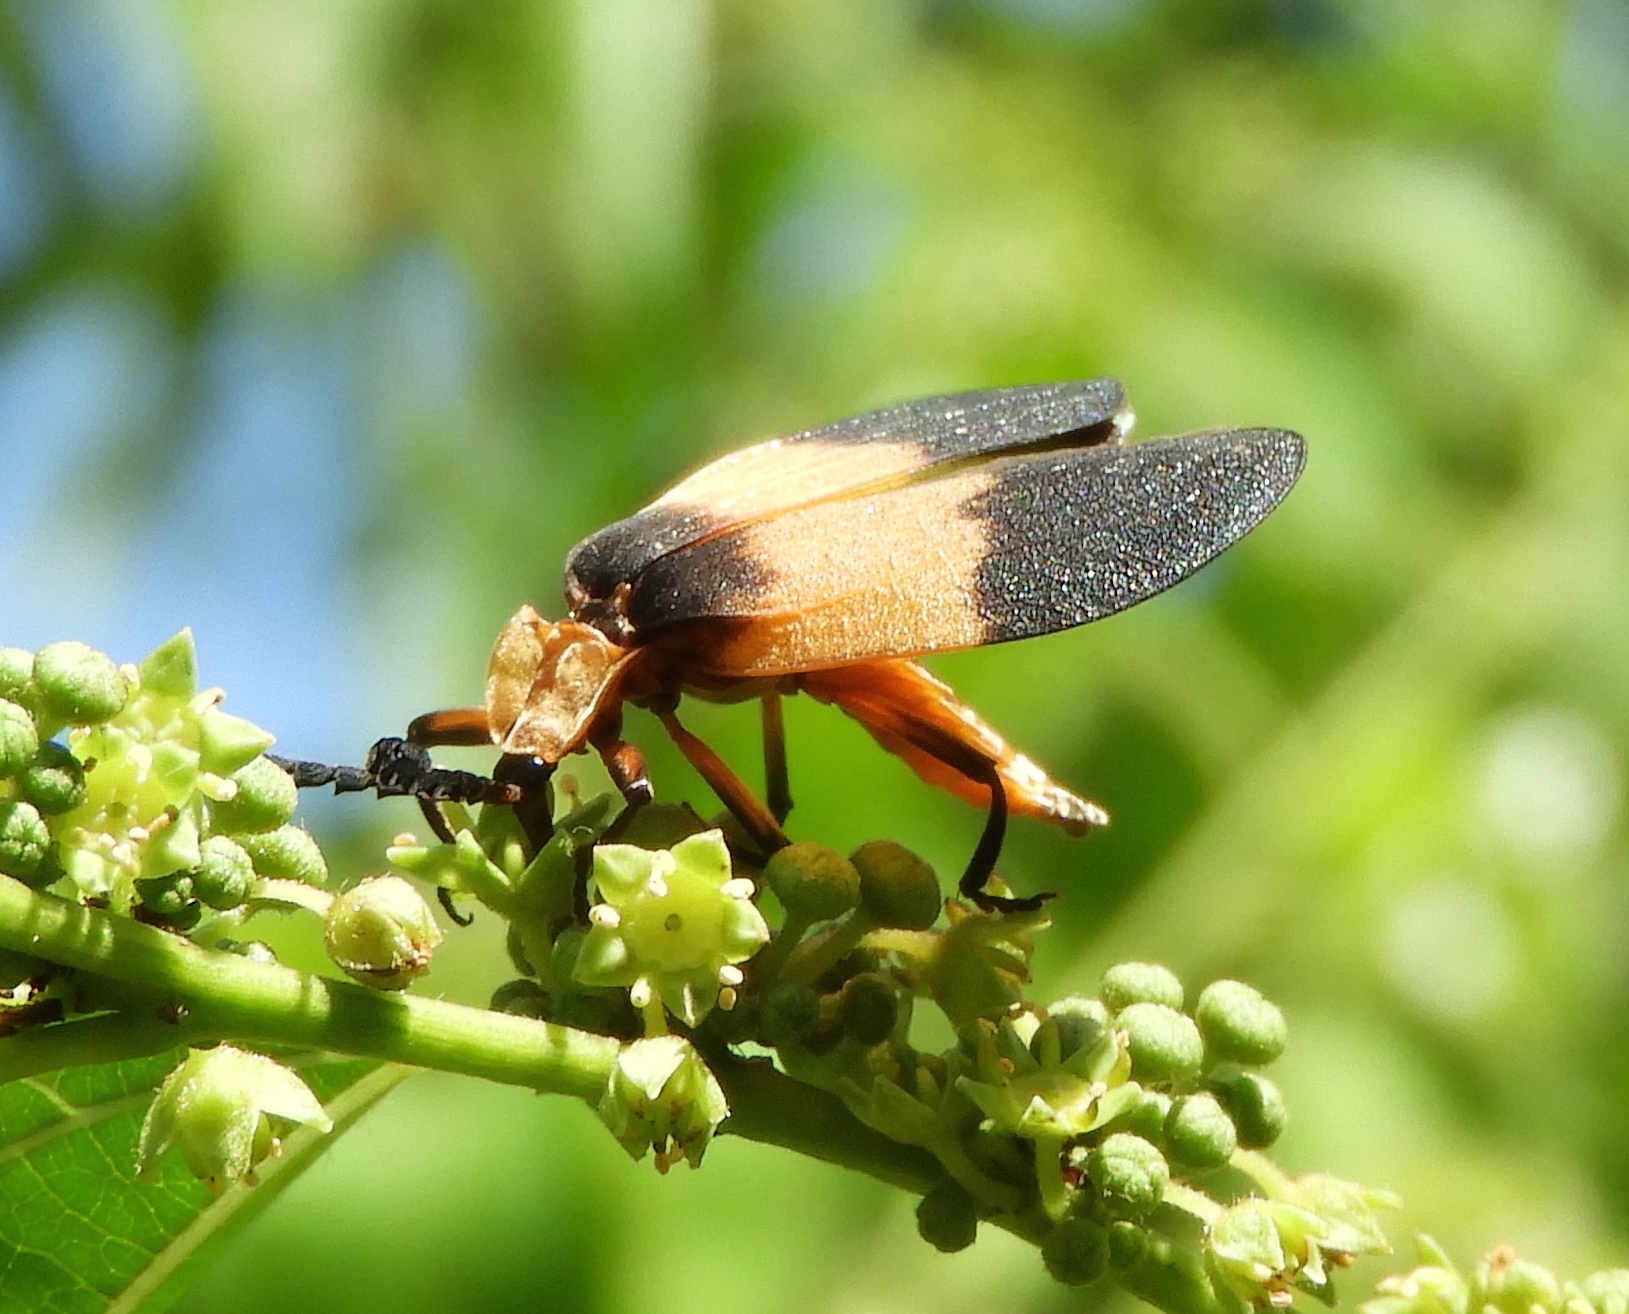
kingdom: Animalia
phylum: Arthropoda
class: Insecta
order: Coleoptera
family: Lycidae
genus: Lycus
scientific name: Lycus
